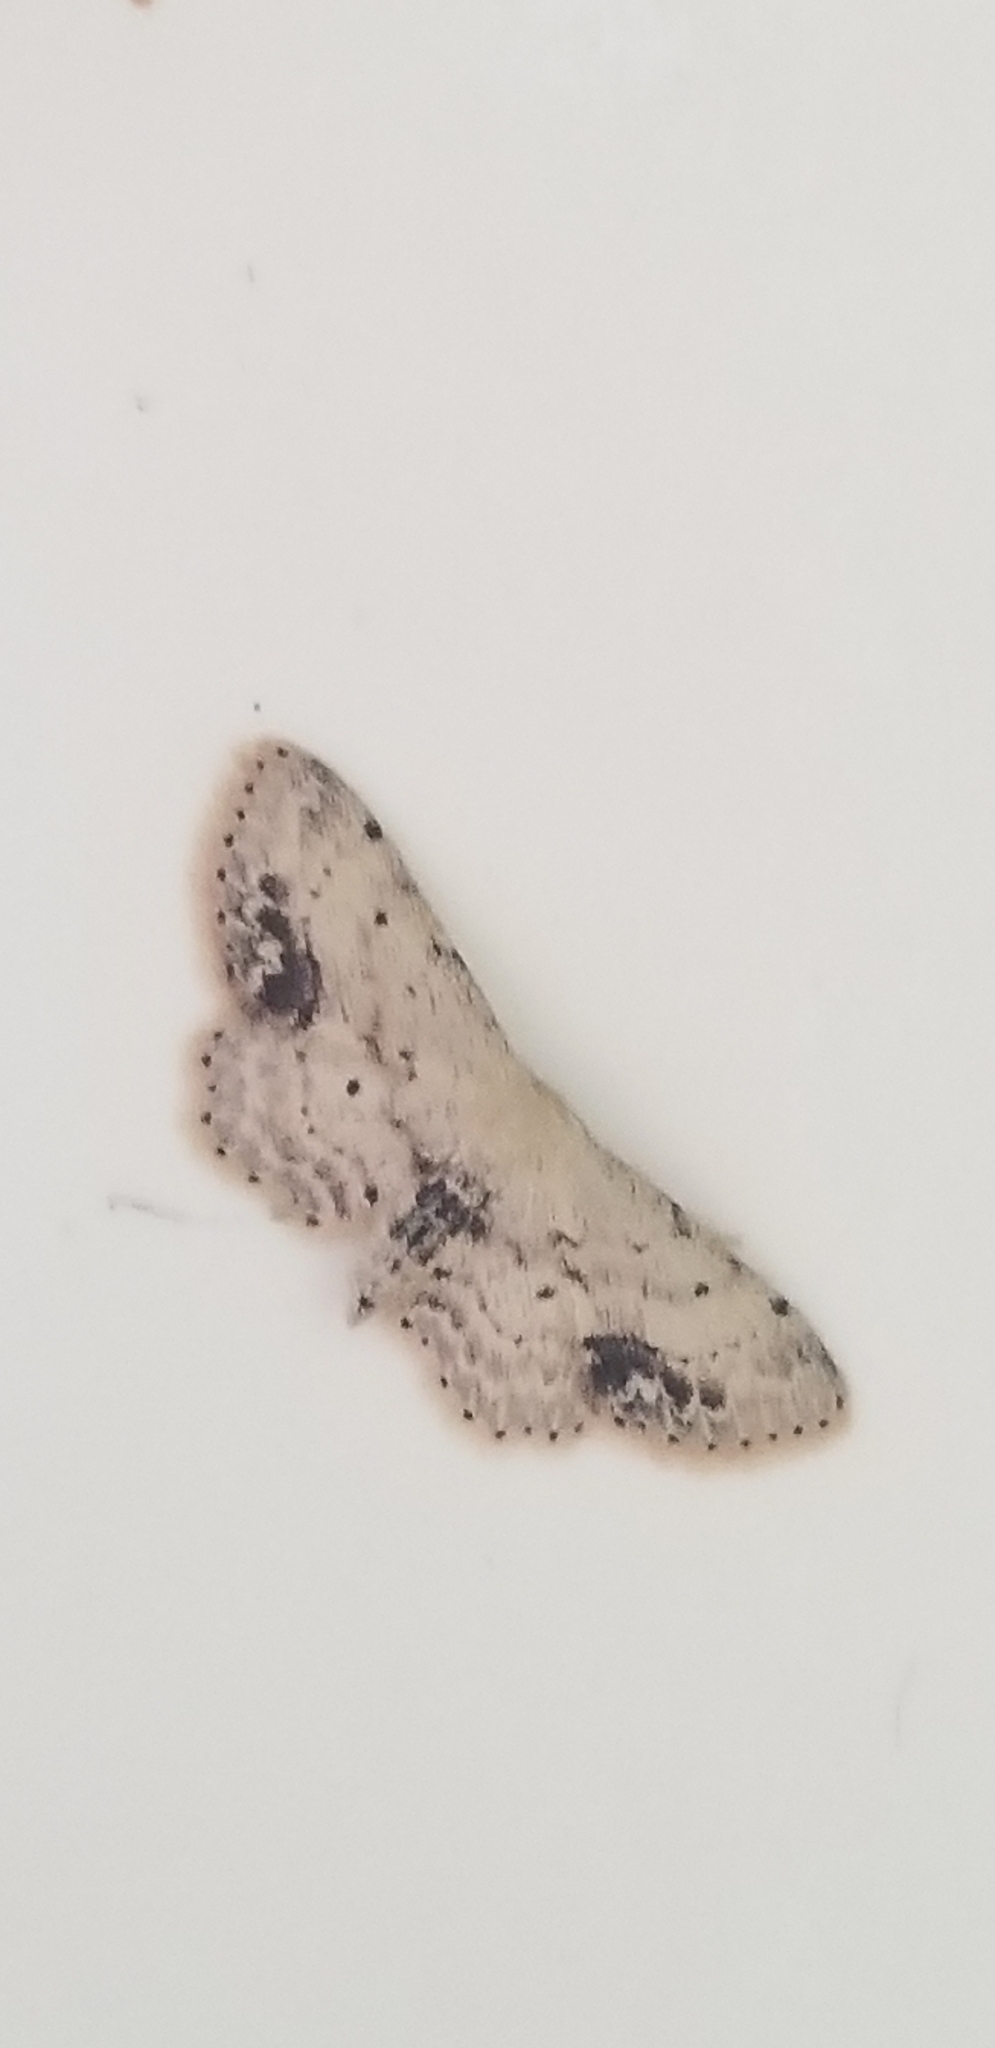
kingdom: Animalia
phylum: Arthropoda
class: Insecta
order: Lepidoptera
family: Geometridae
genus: Idaea
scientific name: Idaea dimidiata
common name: Single-dotted wave
